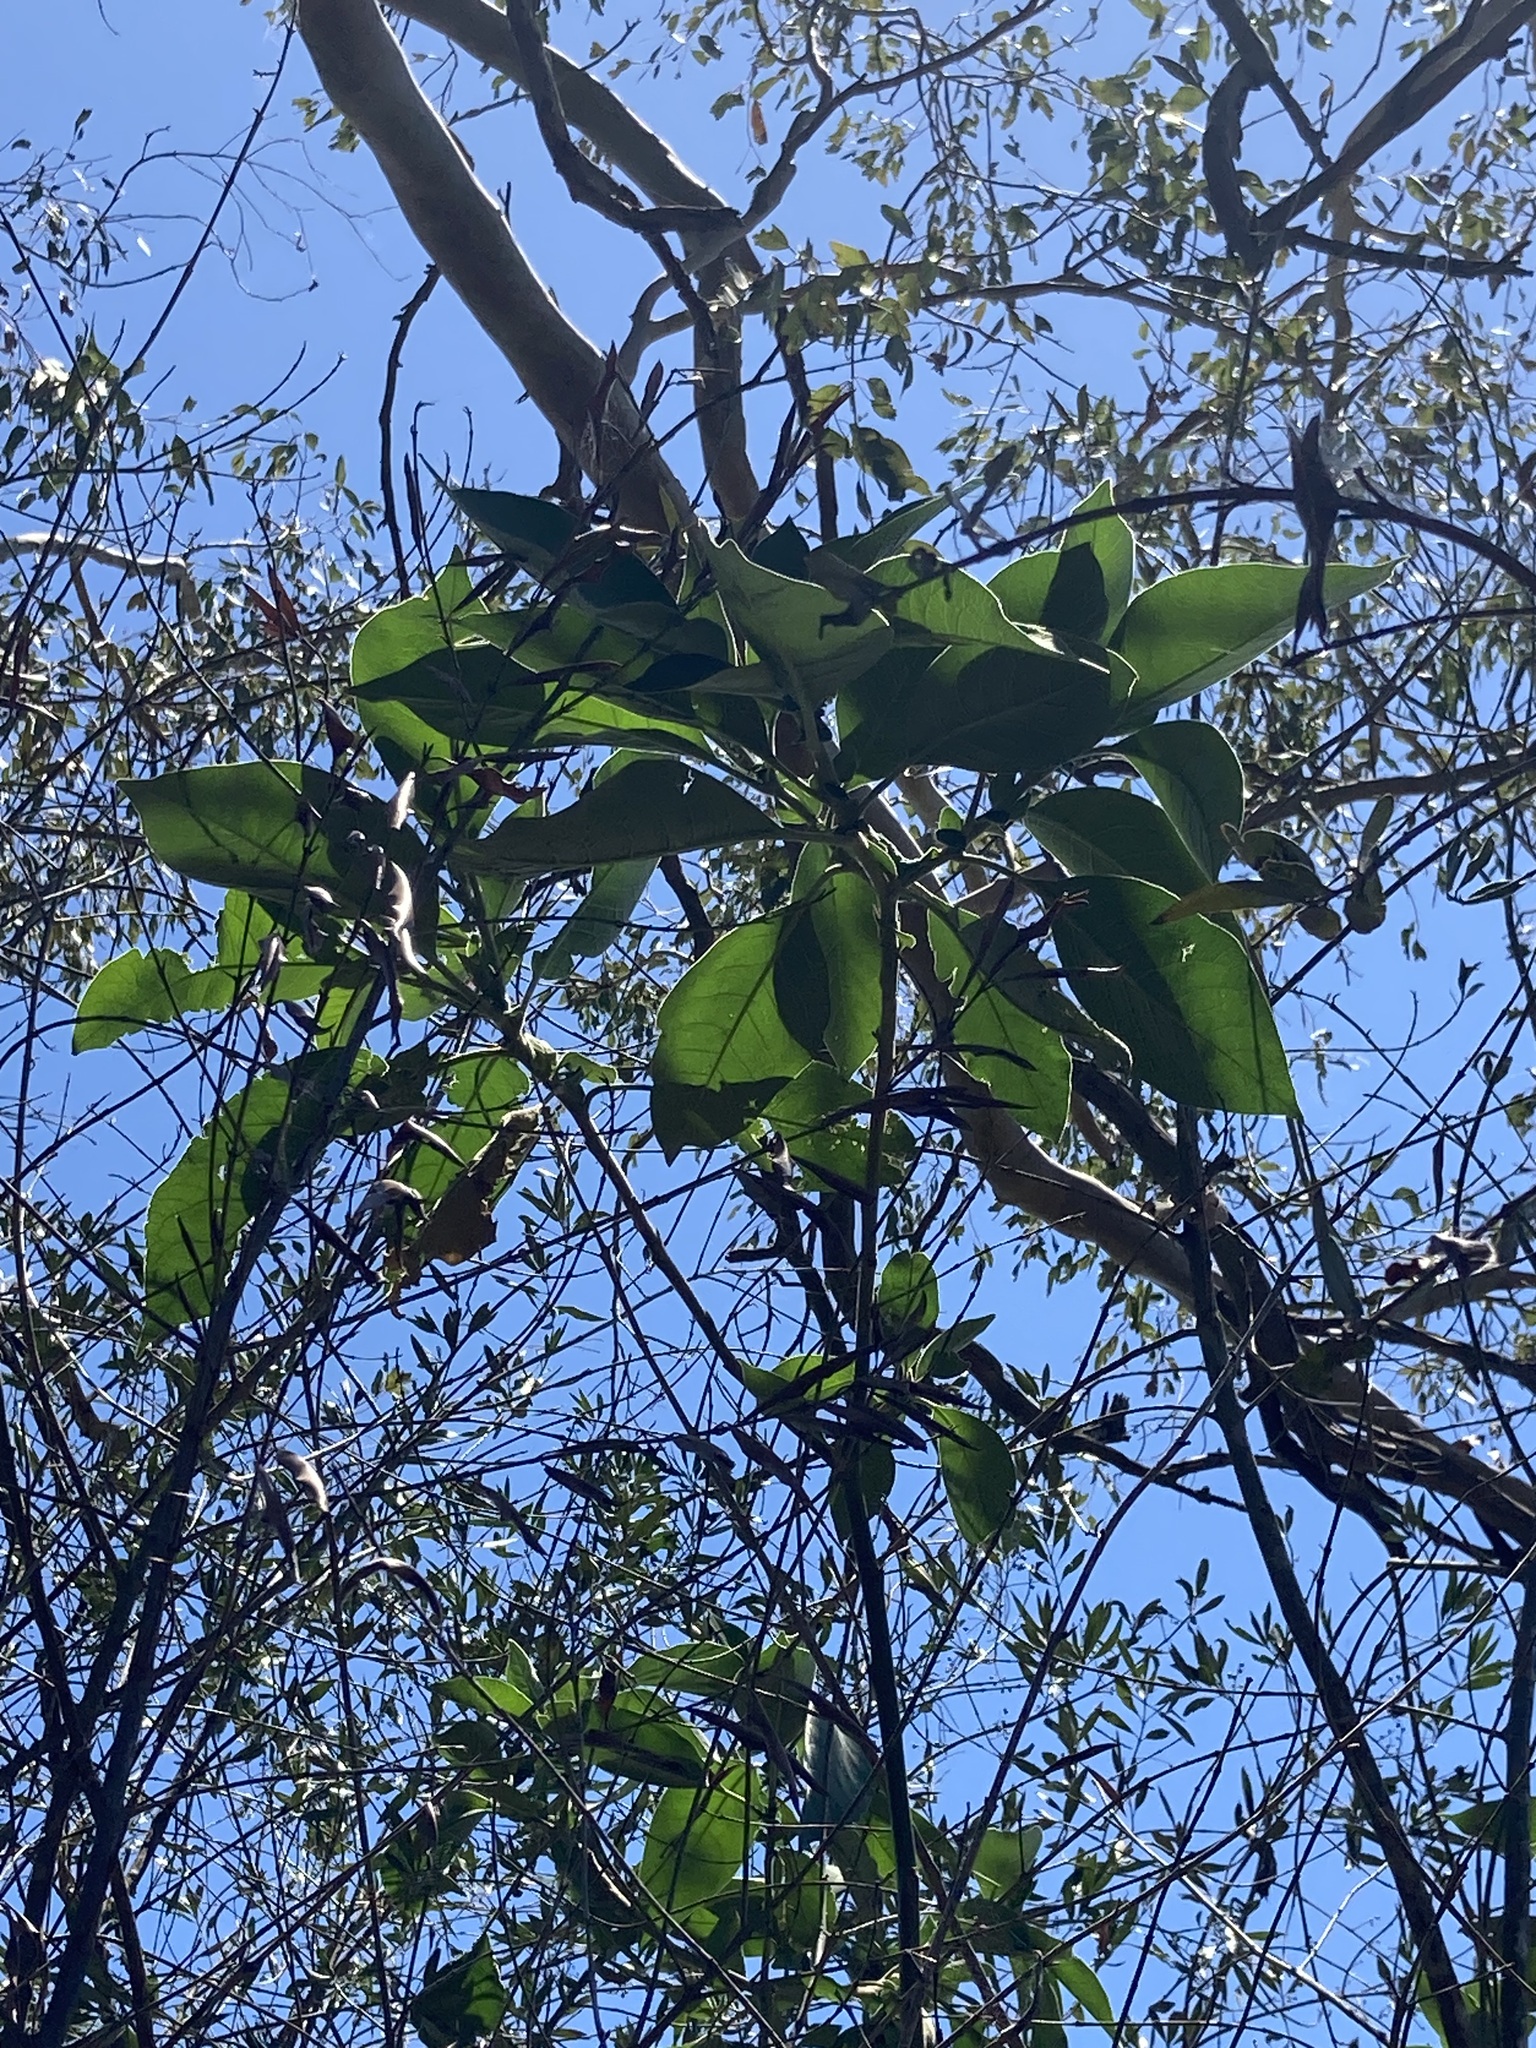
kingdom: Plantae
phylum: Tracheophyta
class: Magnoliopsida
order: Solanales
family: Solanaceae
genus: Solanum
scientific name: Solanum mauritianum
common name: Earleaf nightshade
